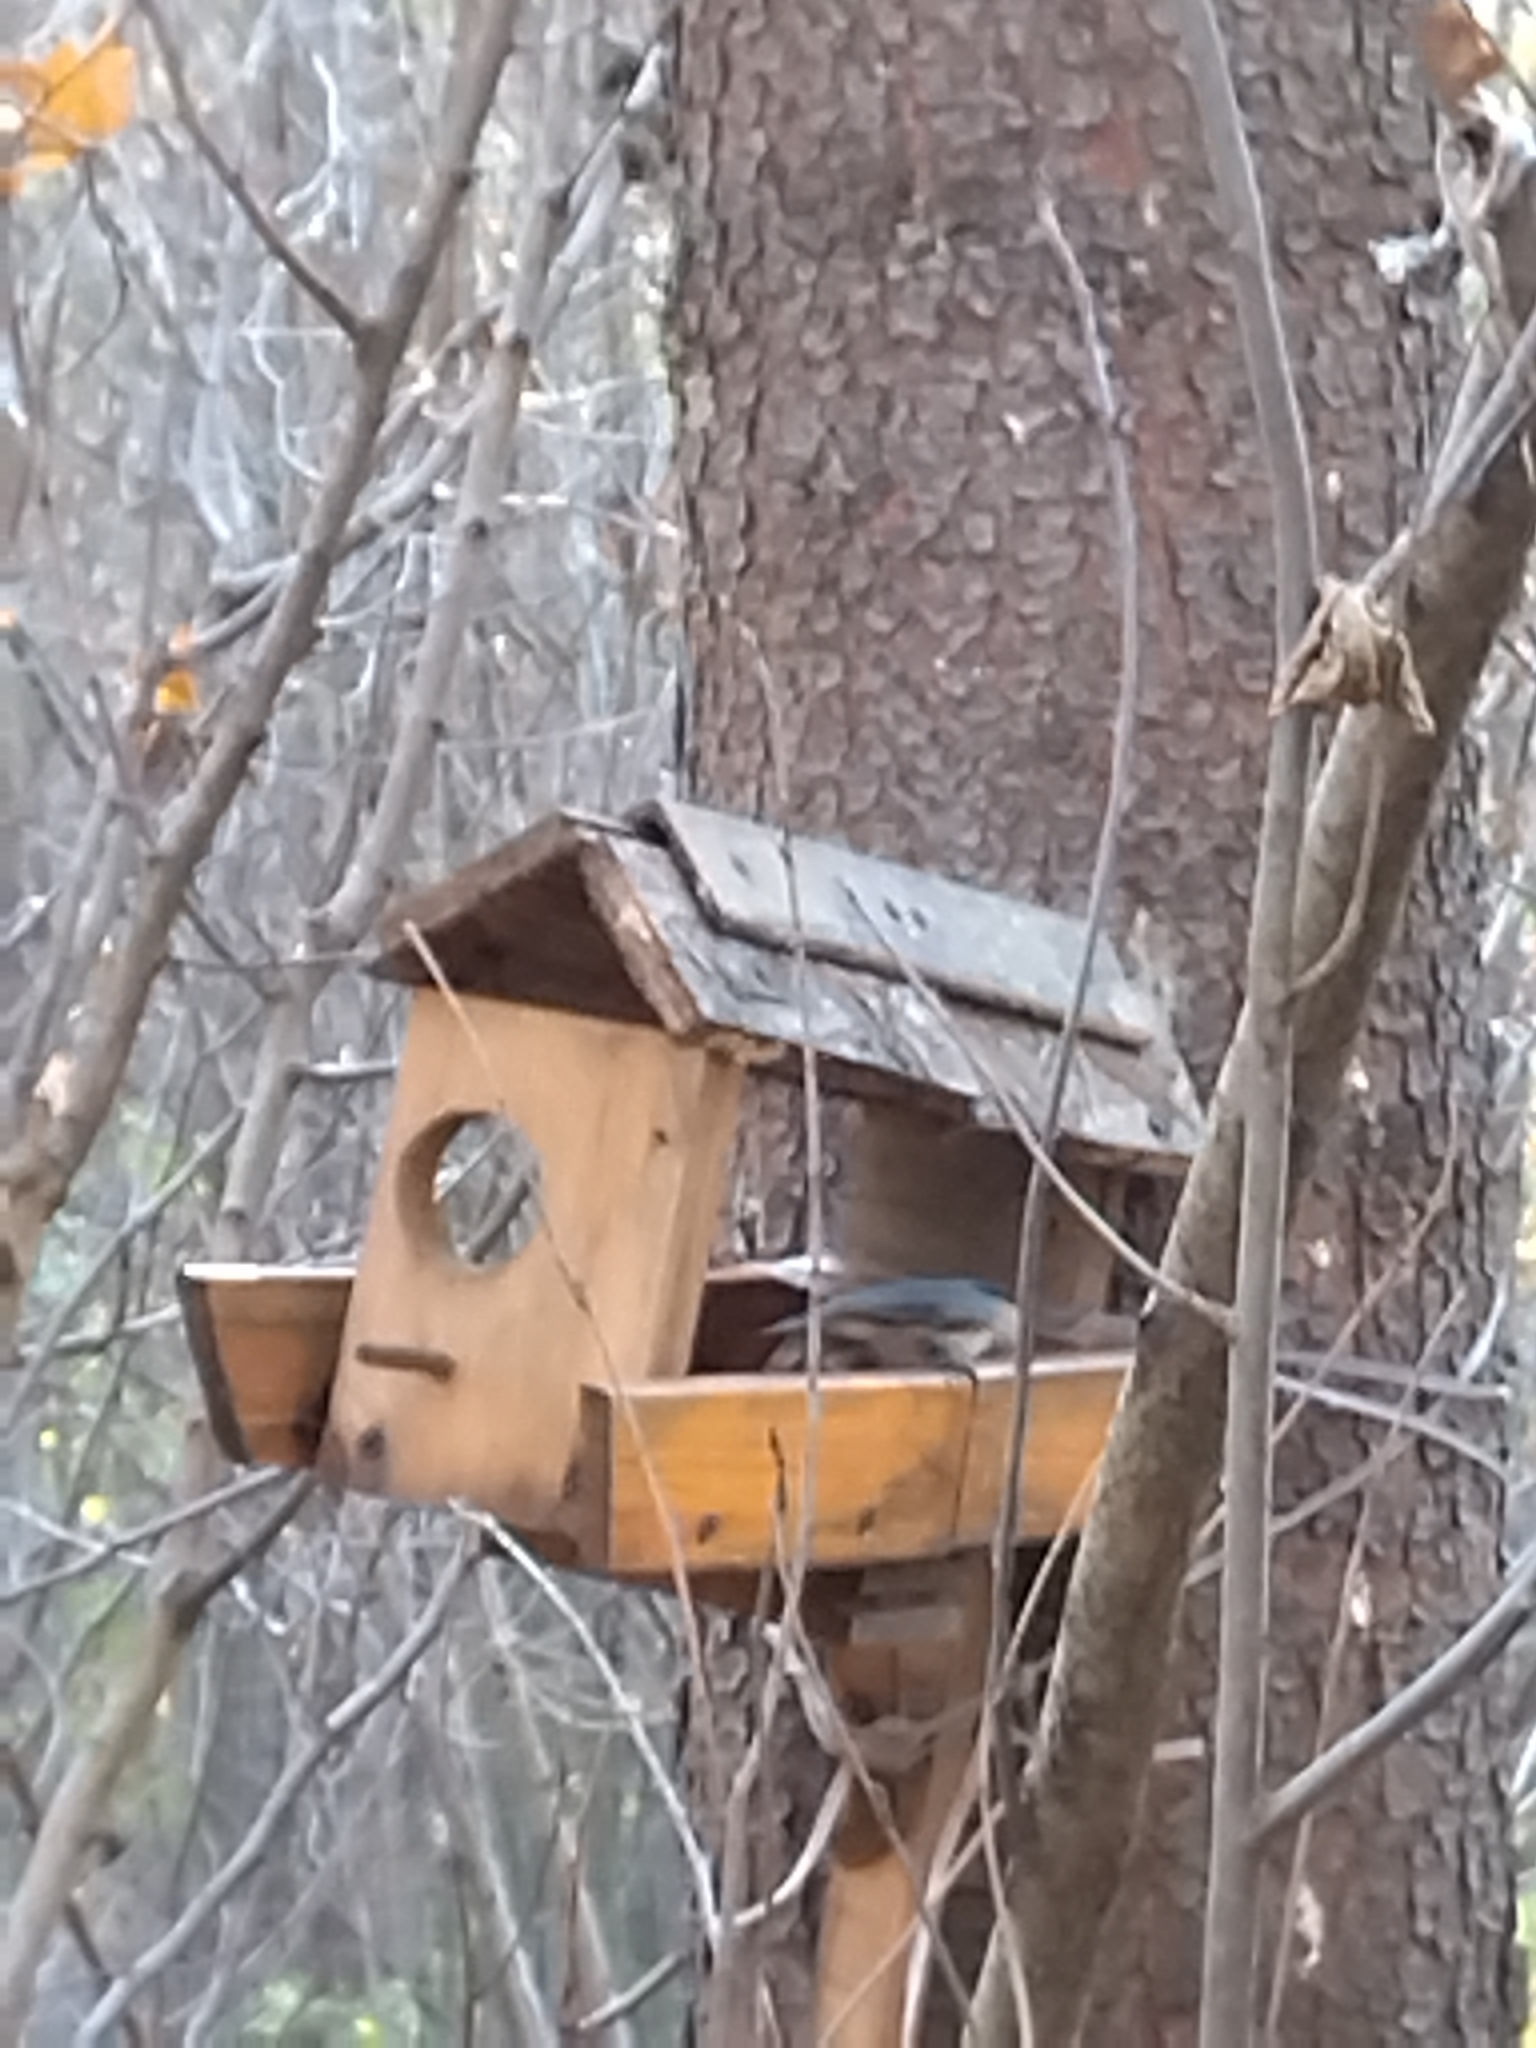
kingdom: Animalia
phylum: Chordata
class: Aves
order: Passeriformes
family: Sittidae
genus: Sitta
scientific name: Sitta europaea
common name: Eurasian nuthatch
